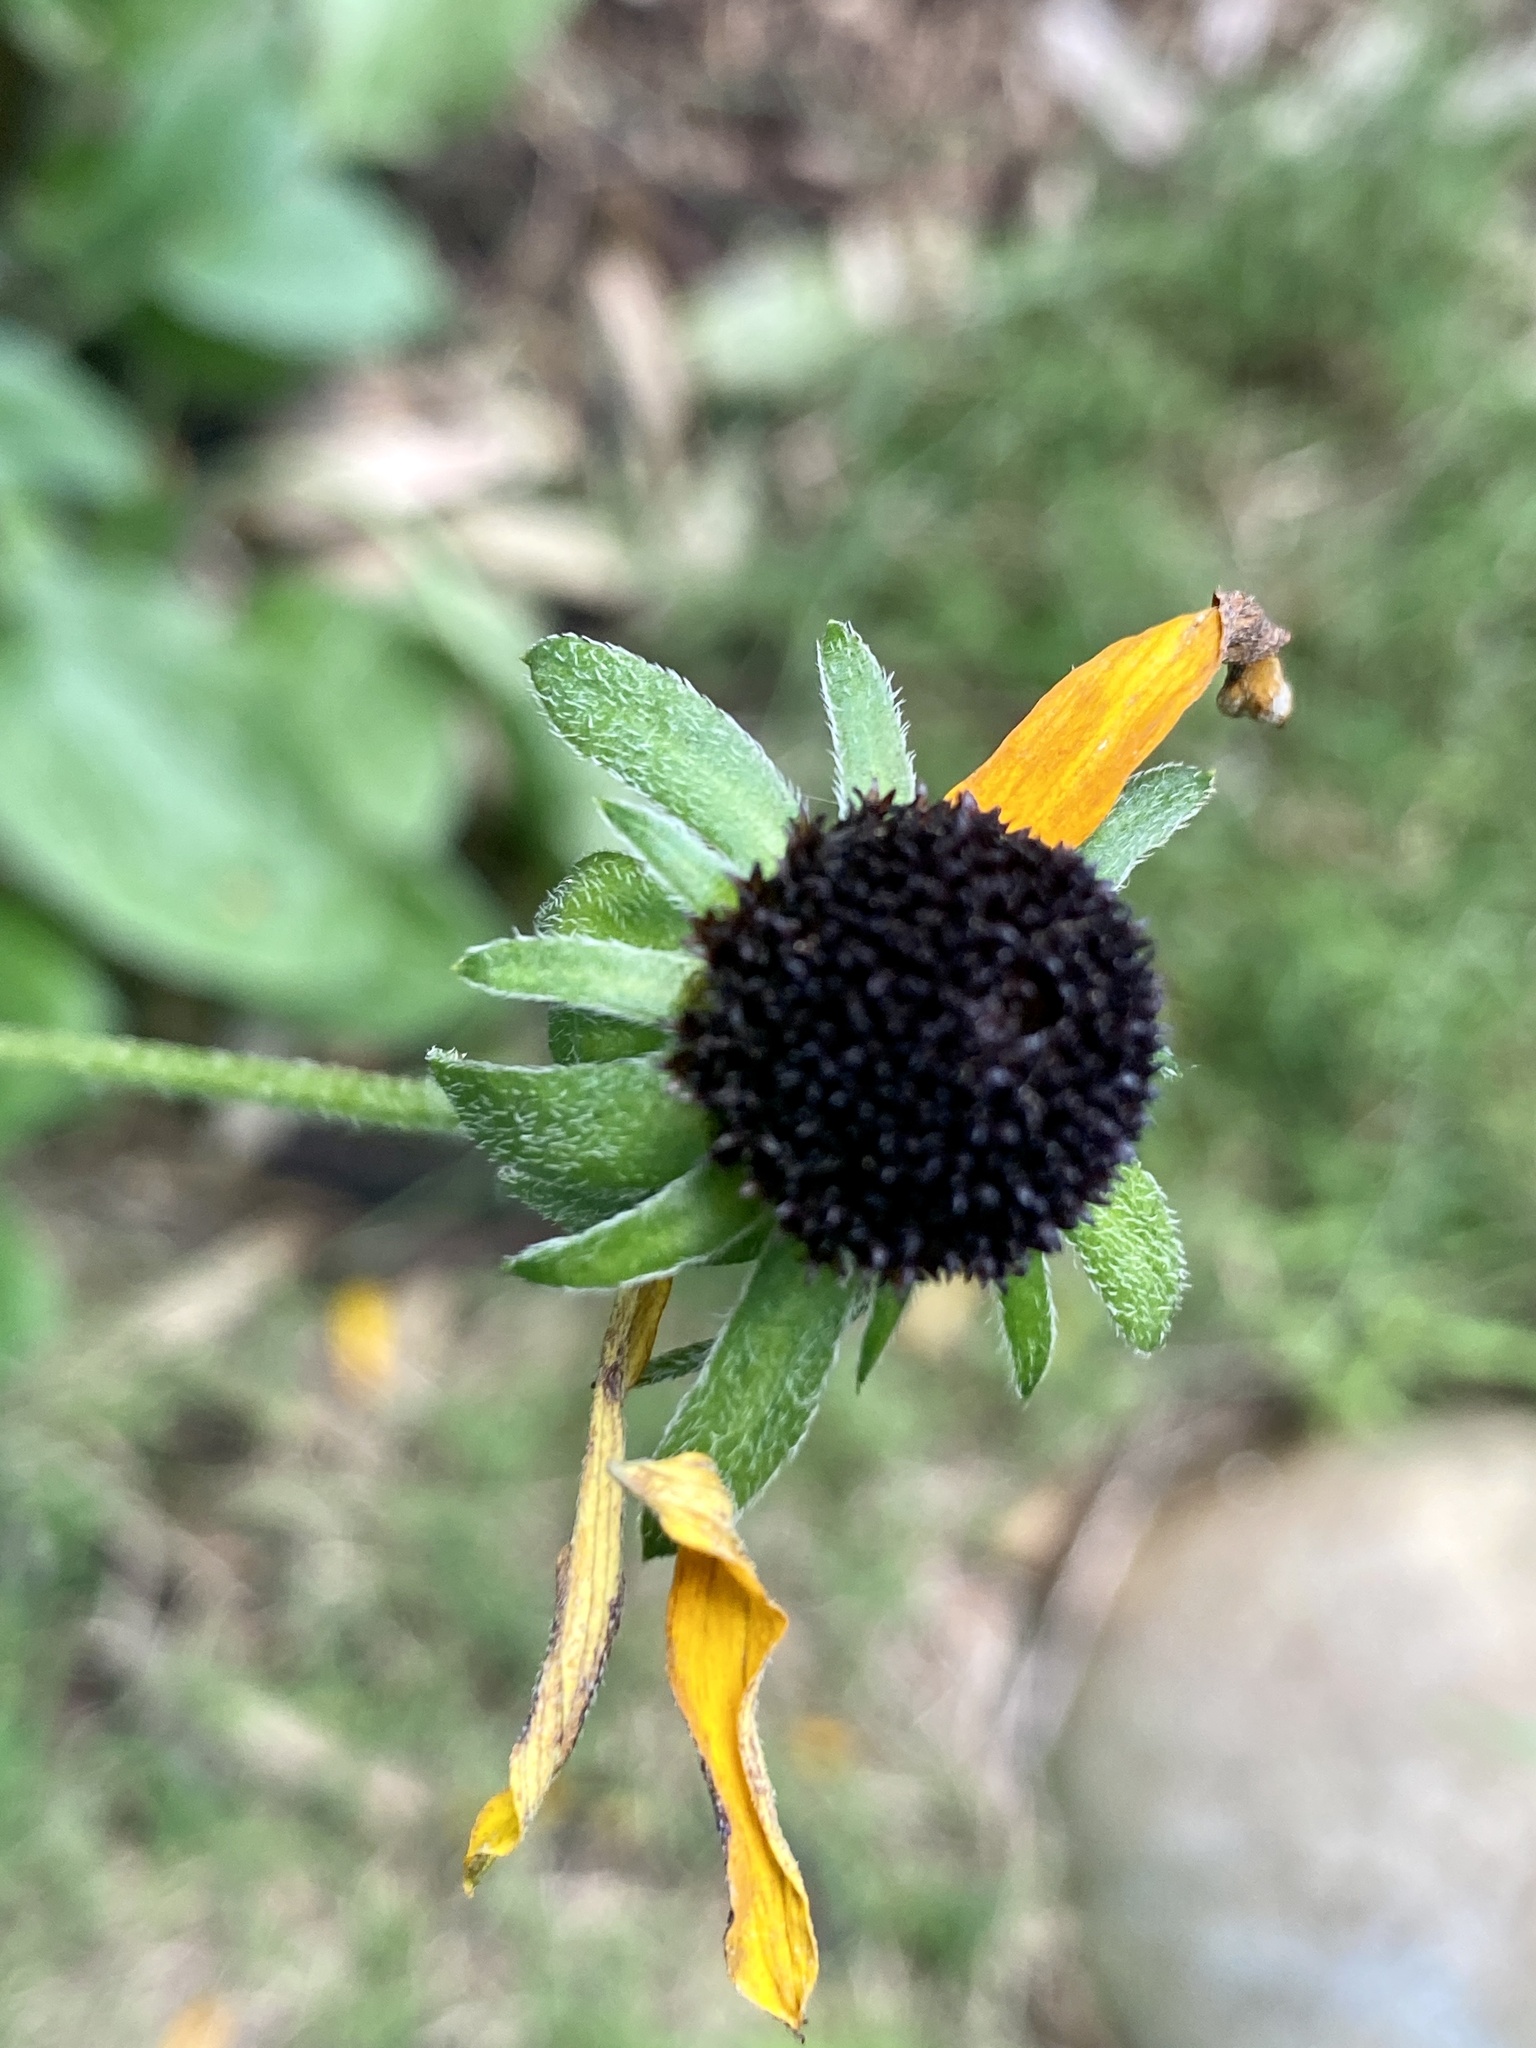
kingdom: Plantae
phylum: Tracheophyta
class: Magnoliopsida
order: Asterales
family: Asteraceae
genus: Rudbeckia
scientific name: Rudbeckia hirta
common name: Black-eyed-susan
